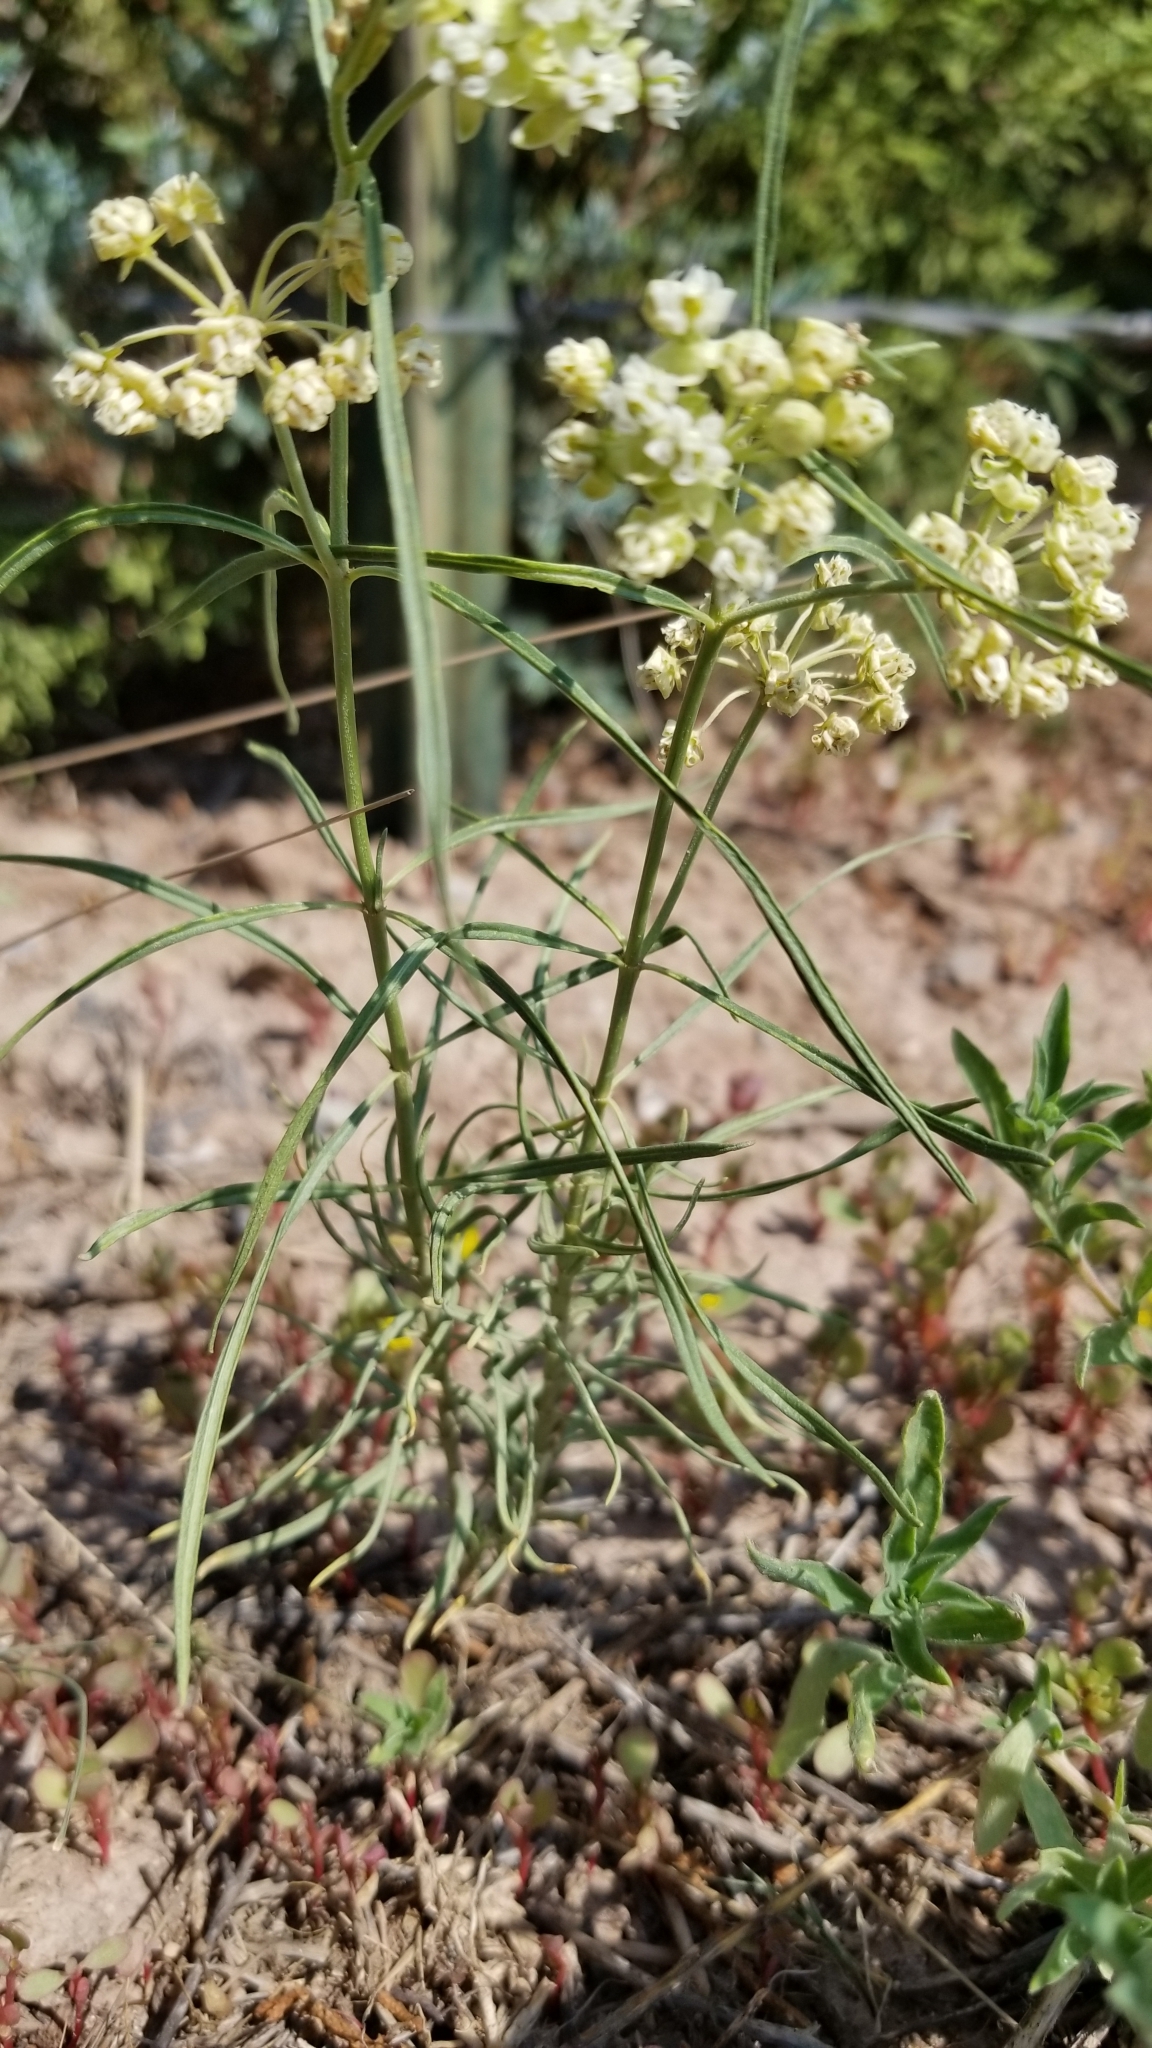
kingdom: Plantae
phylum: Tracheophyta
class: Magnoliopsida
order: Gentianales
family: Apocynaceae
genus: Asclepias
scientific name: Asclepias subverticillata
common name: Horsetail milkweed
